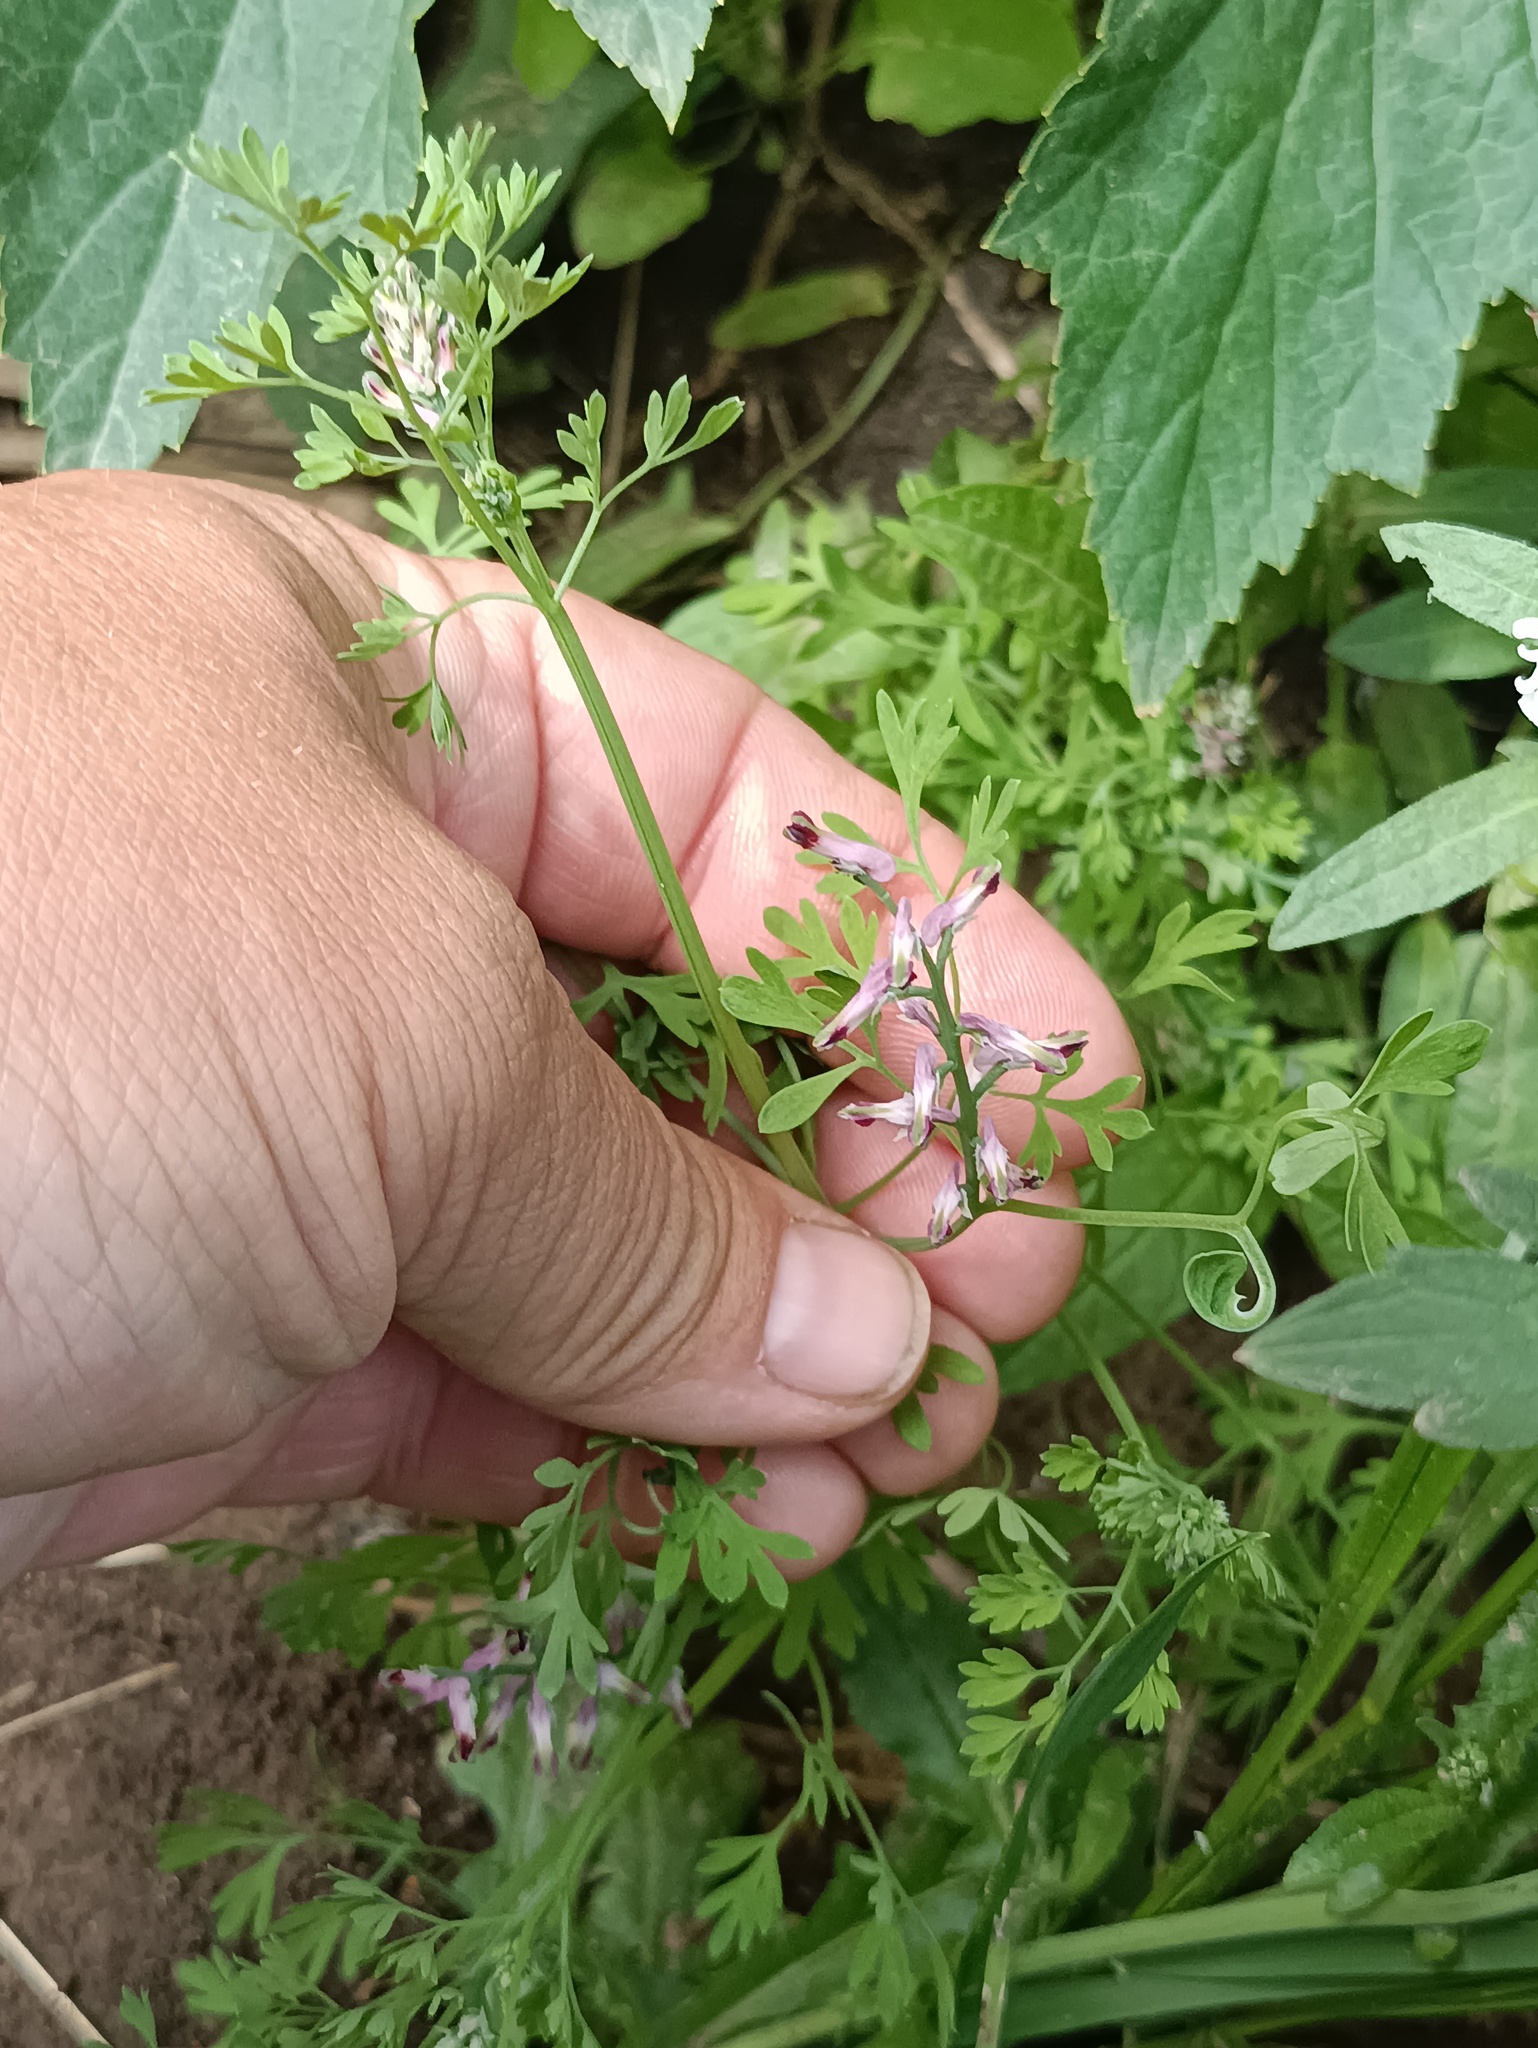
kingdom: Plantae
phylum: Tracheophyta
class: Magnoliopsida
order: Ranunculales
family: Papaveraceae
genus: Fumaria
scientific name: Fumaria officinalis
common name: Common fumitory
